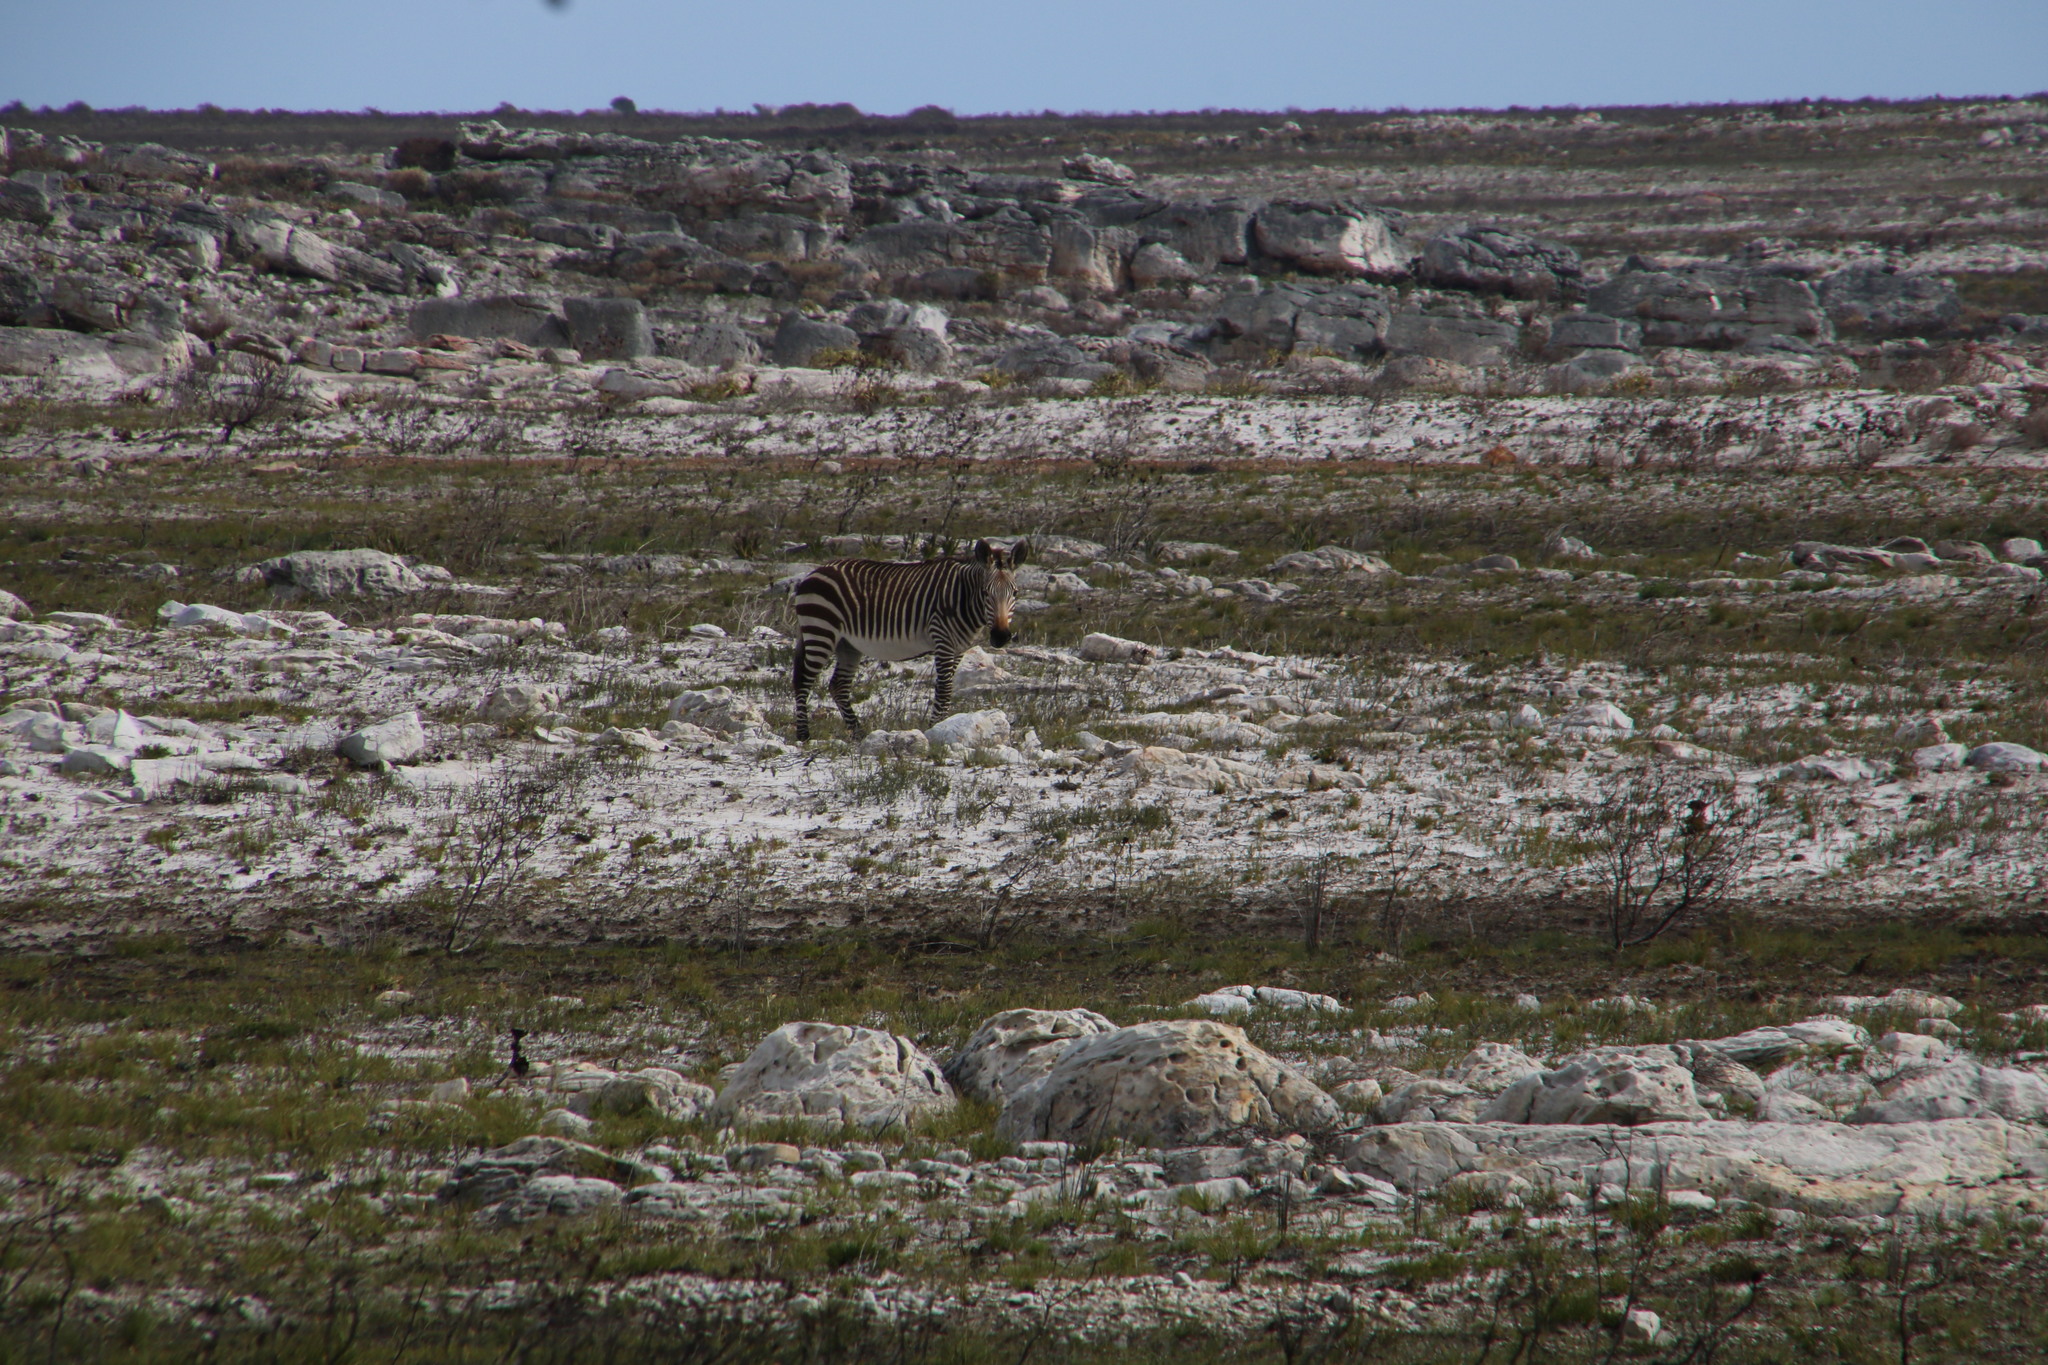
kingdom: Animalia
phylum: Chordata
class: Mammalia
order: Perissodactyla
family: Equidae
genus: Equus
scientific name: Equus zebra
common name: Mountain zebra
